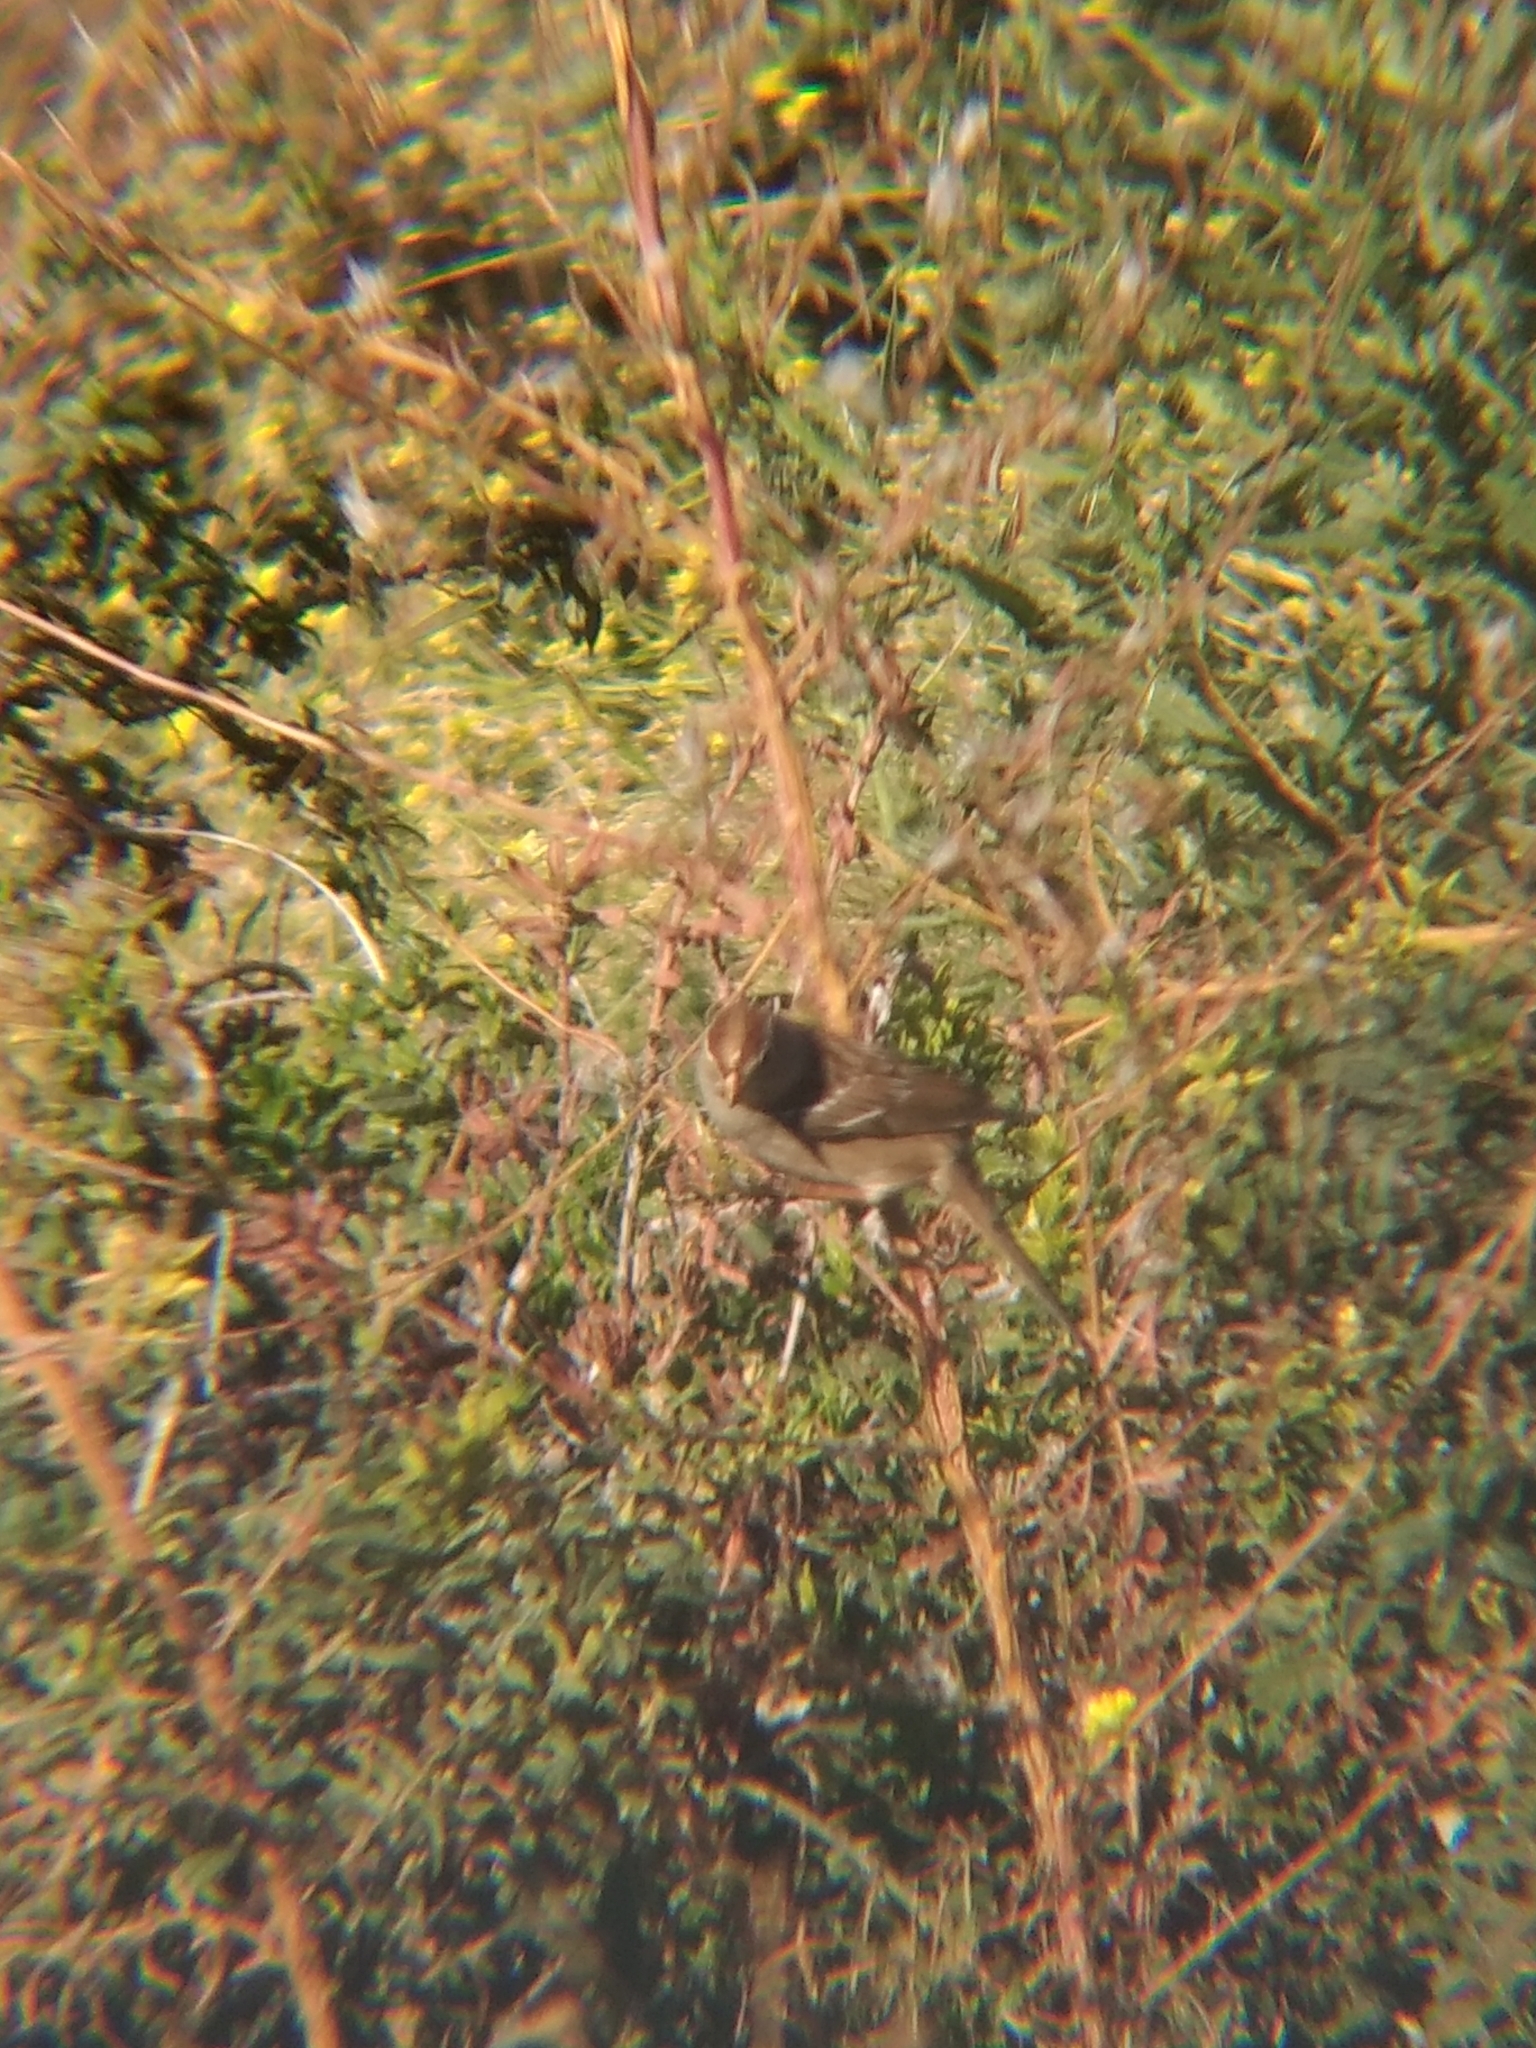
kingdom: Animalia
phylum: Chordata
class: Aves
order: Passeriformes
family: Passerellidae
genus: Zonotrichia
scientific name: Zonotrichia leucophrys
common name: White-crowned sparrow
